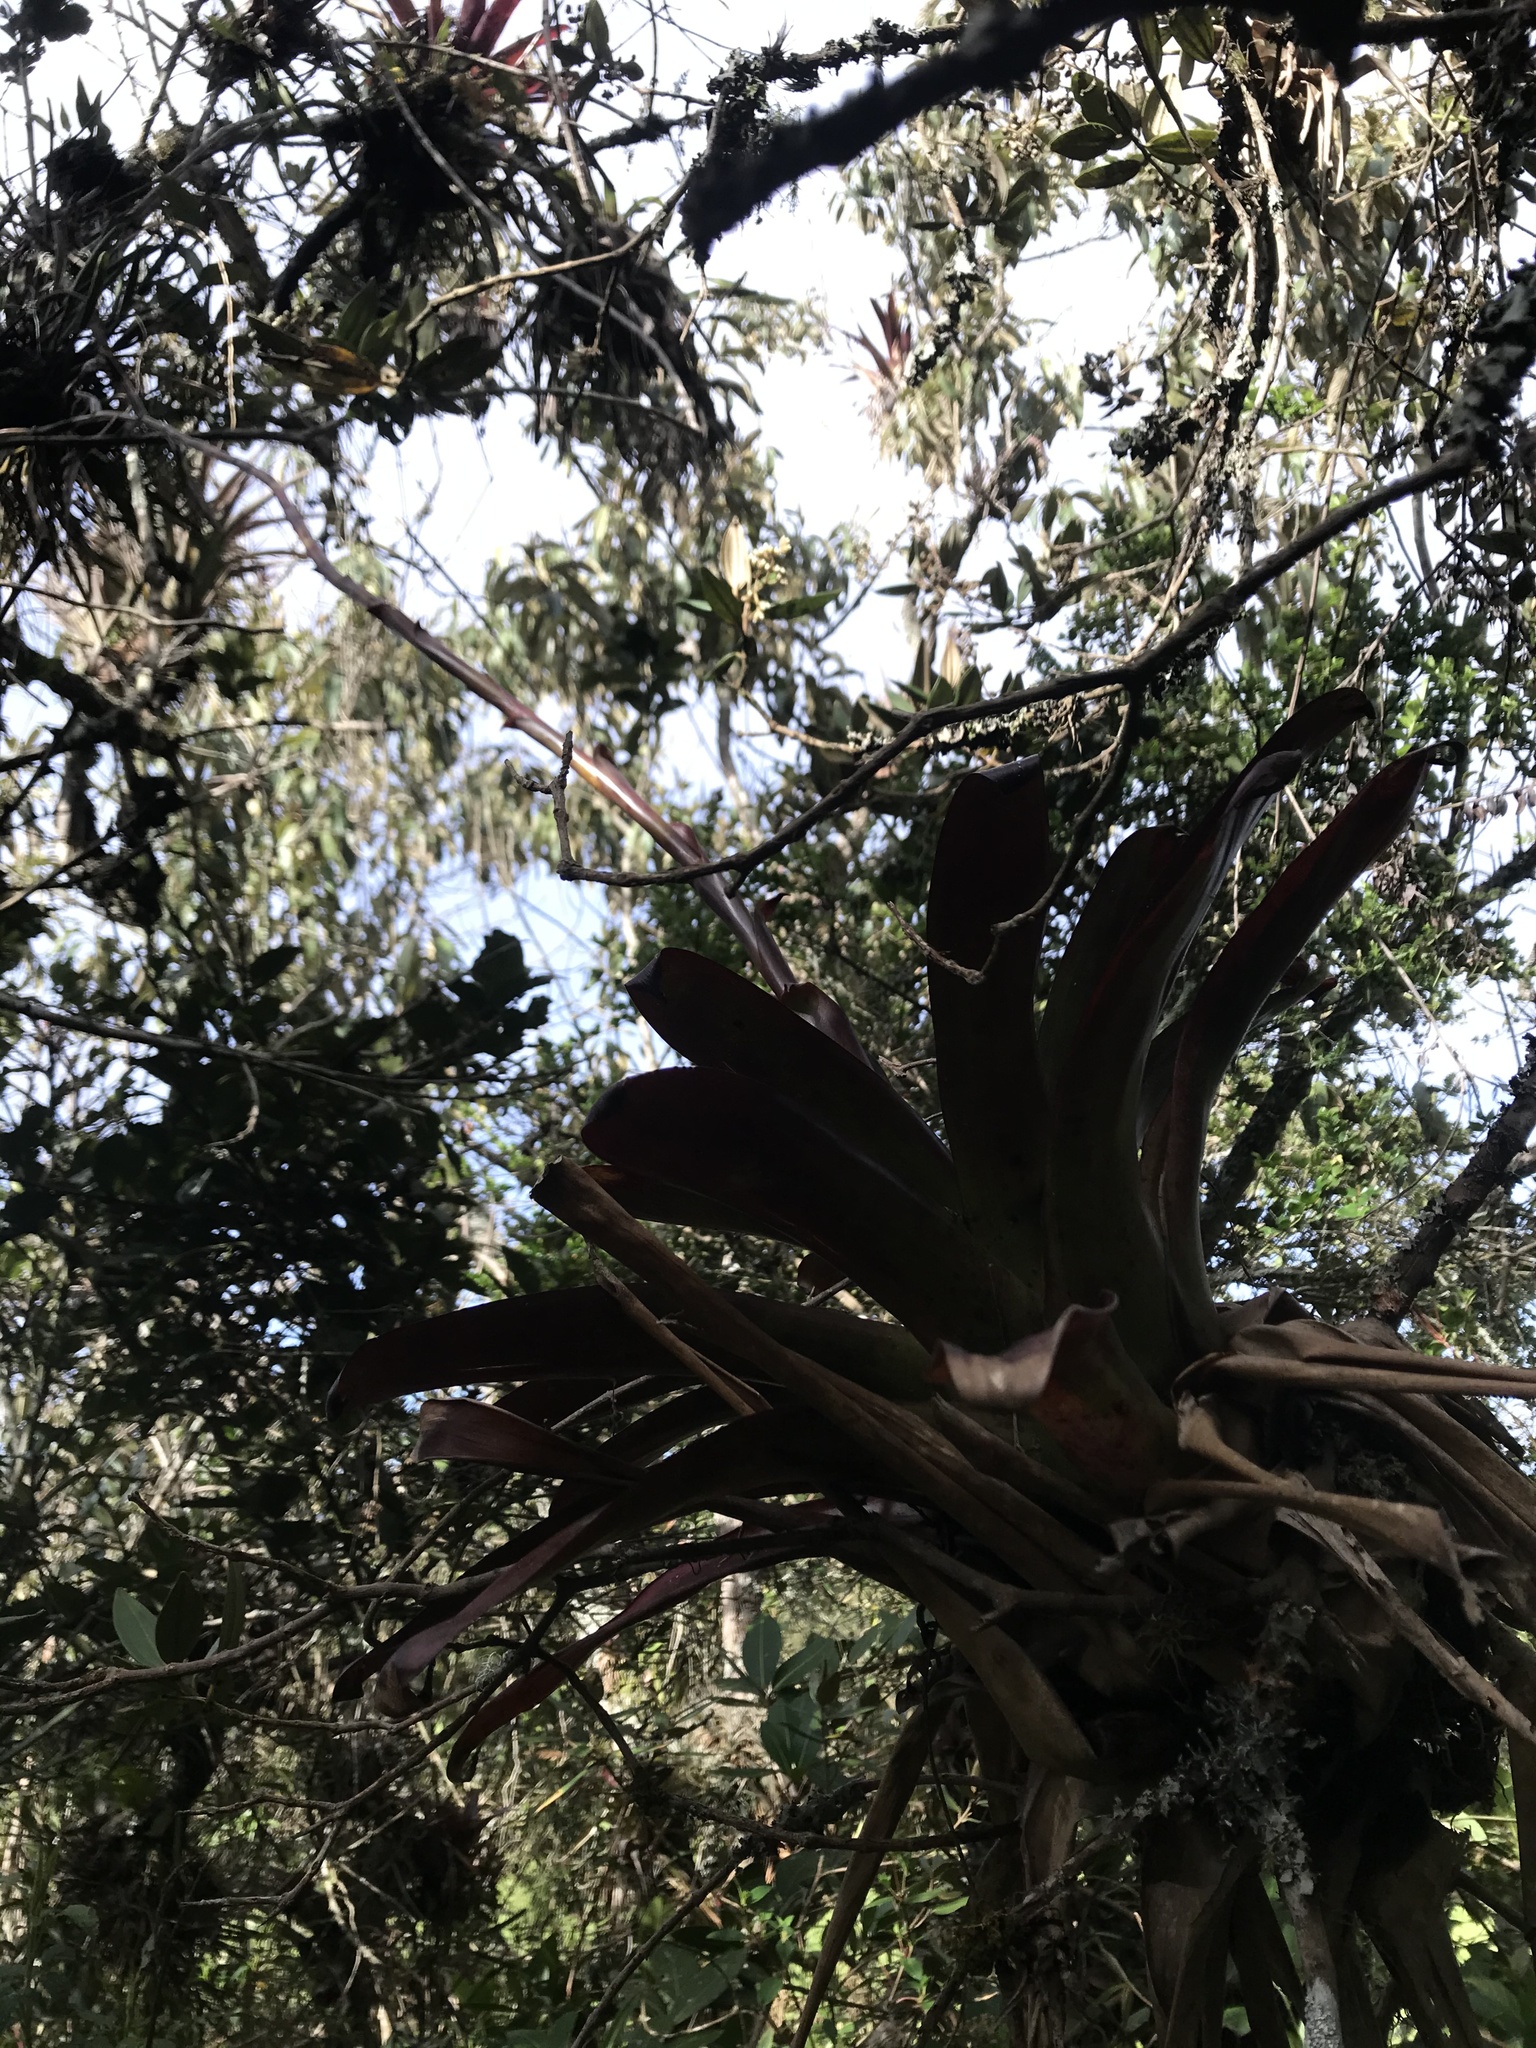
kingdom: Plantae
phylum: Tracheophyta
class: Liliopsida
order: Poales
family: Bromeliaceae
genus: Tillandsia
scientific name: Tillandsia denudata
